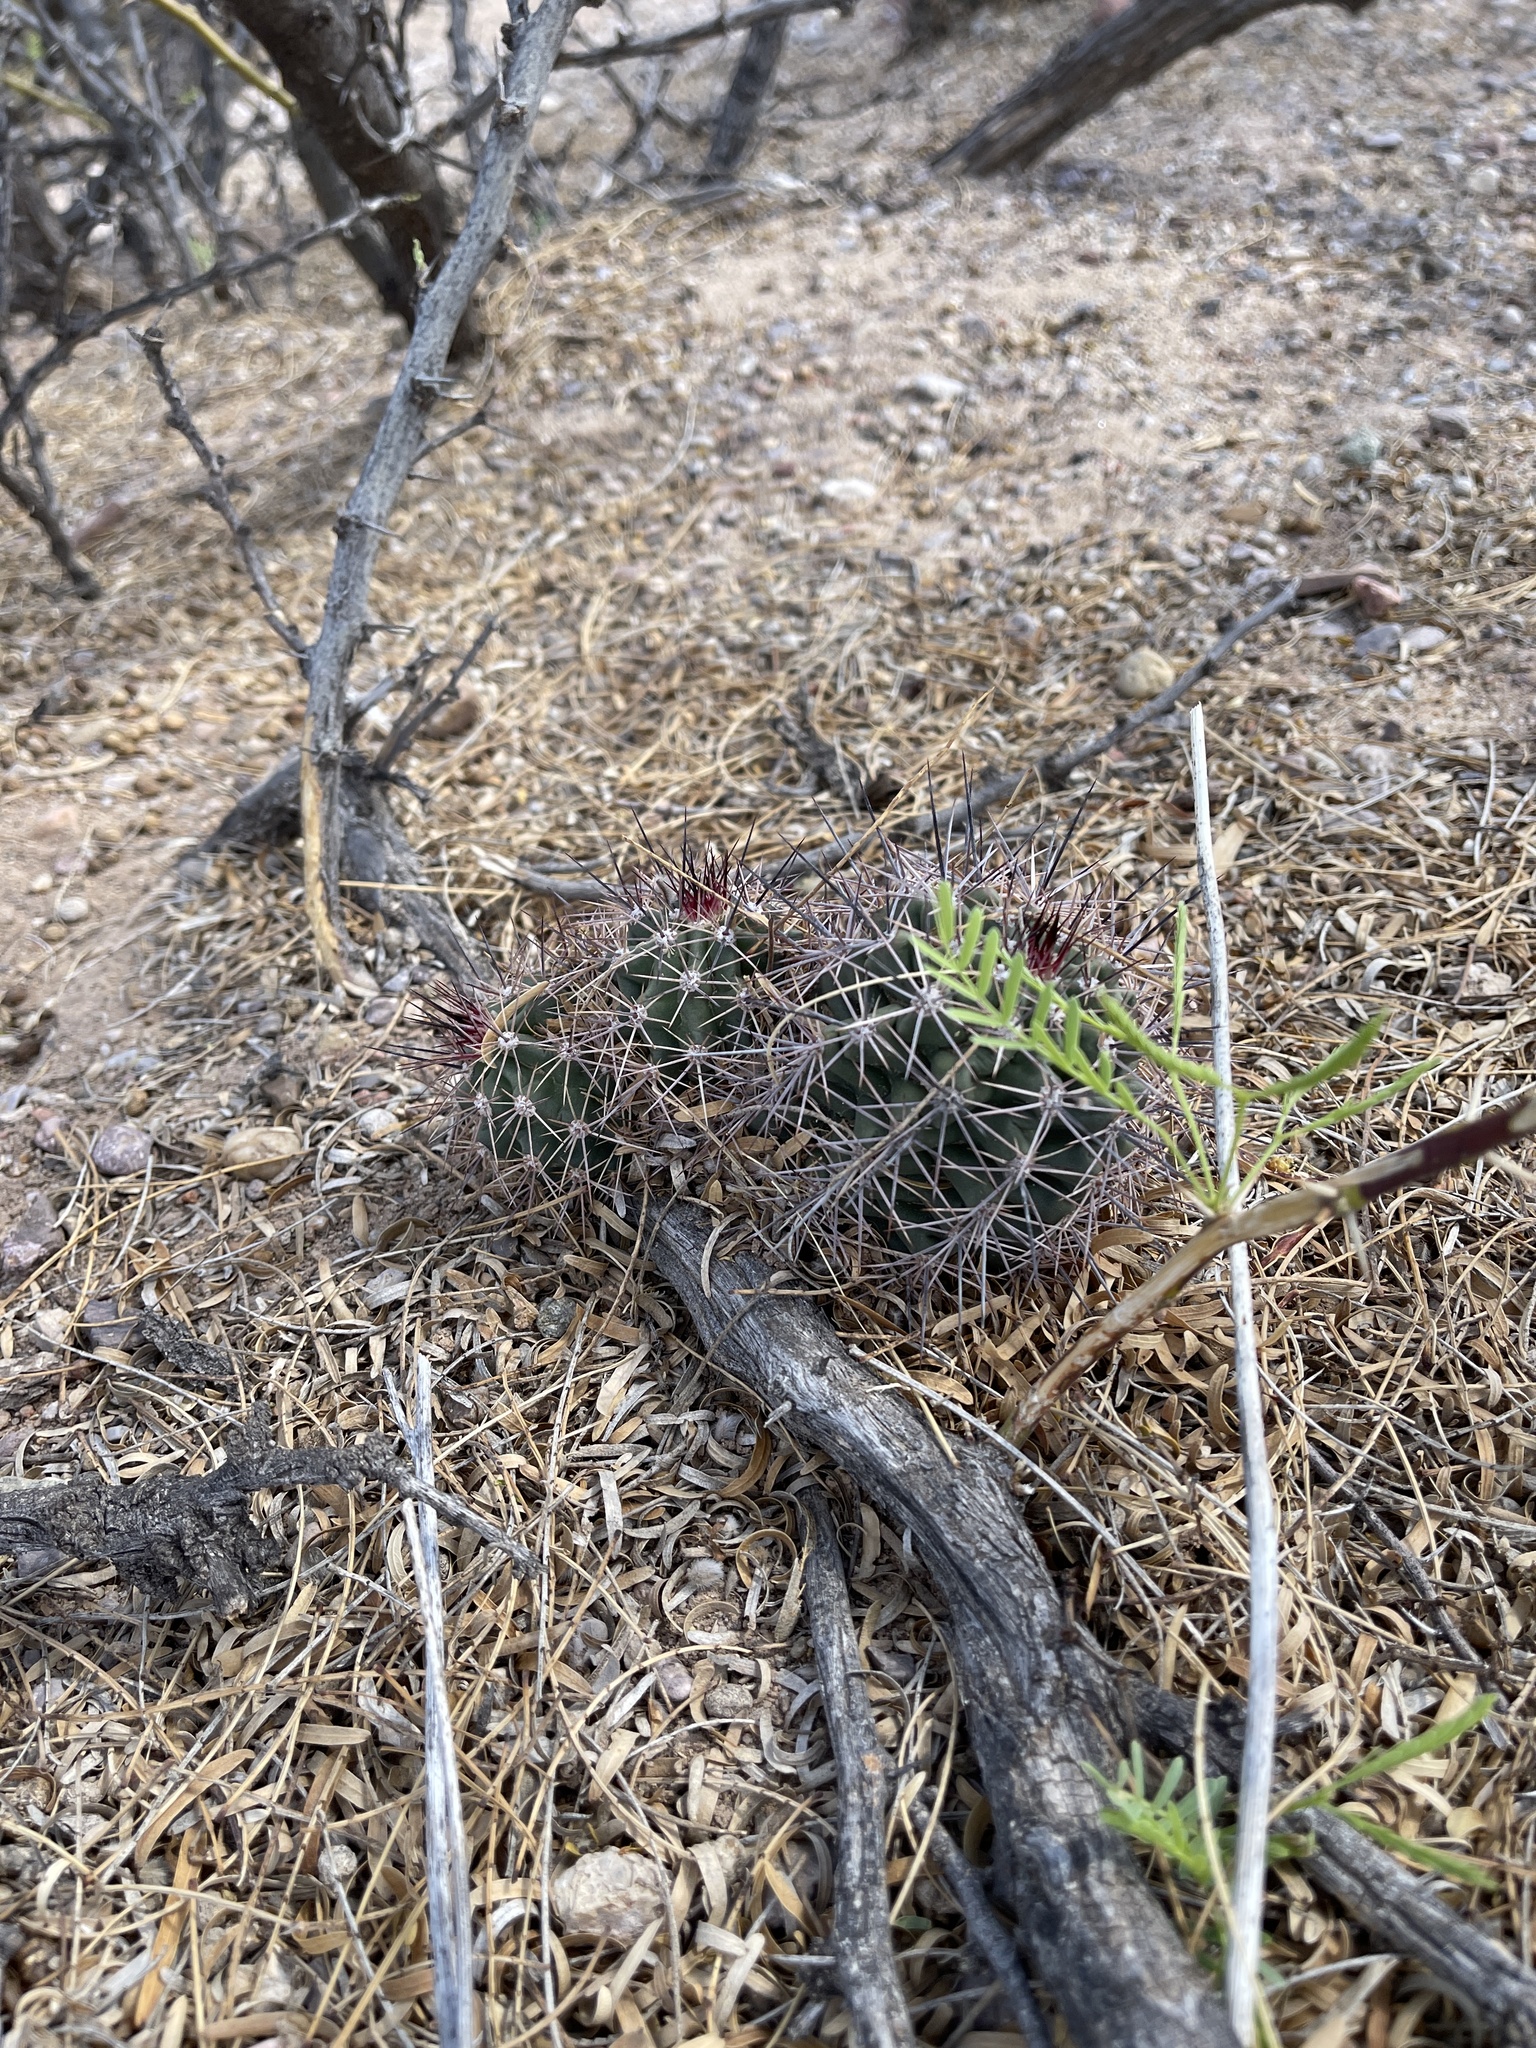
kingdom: Plantae
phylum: Tracheophyta
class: Magnoliopsida
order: Caryophyllales
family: Cactaceae
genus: Echinocereus
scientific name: Echinocereus coccineus
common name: Scarlet hedgehog cactus
